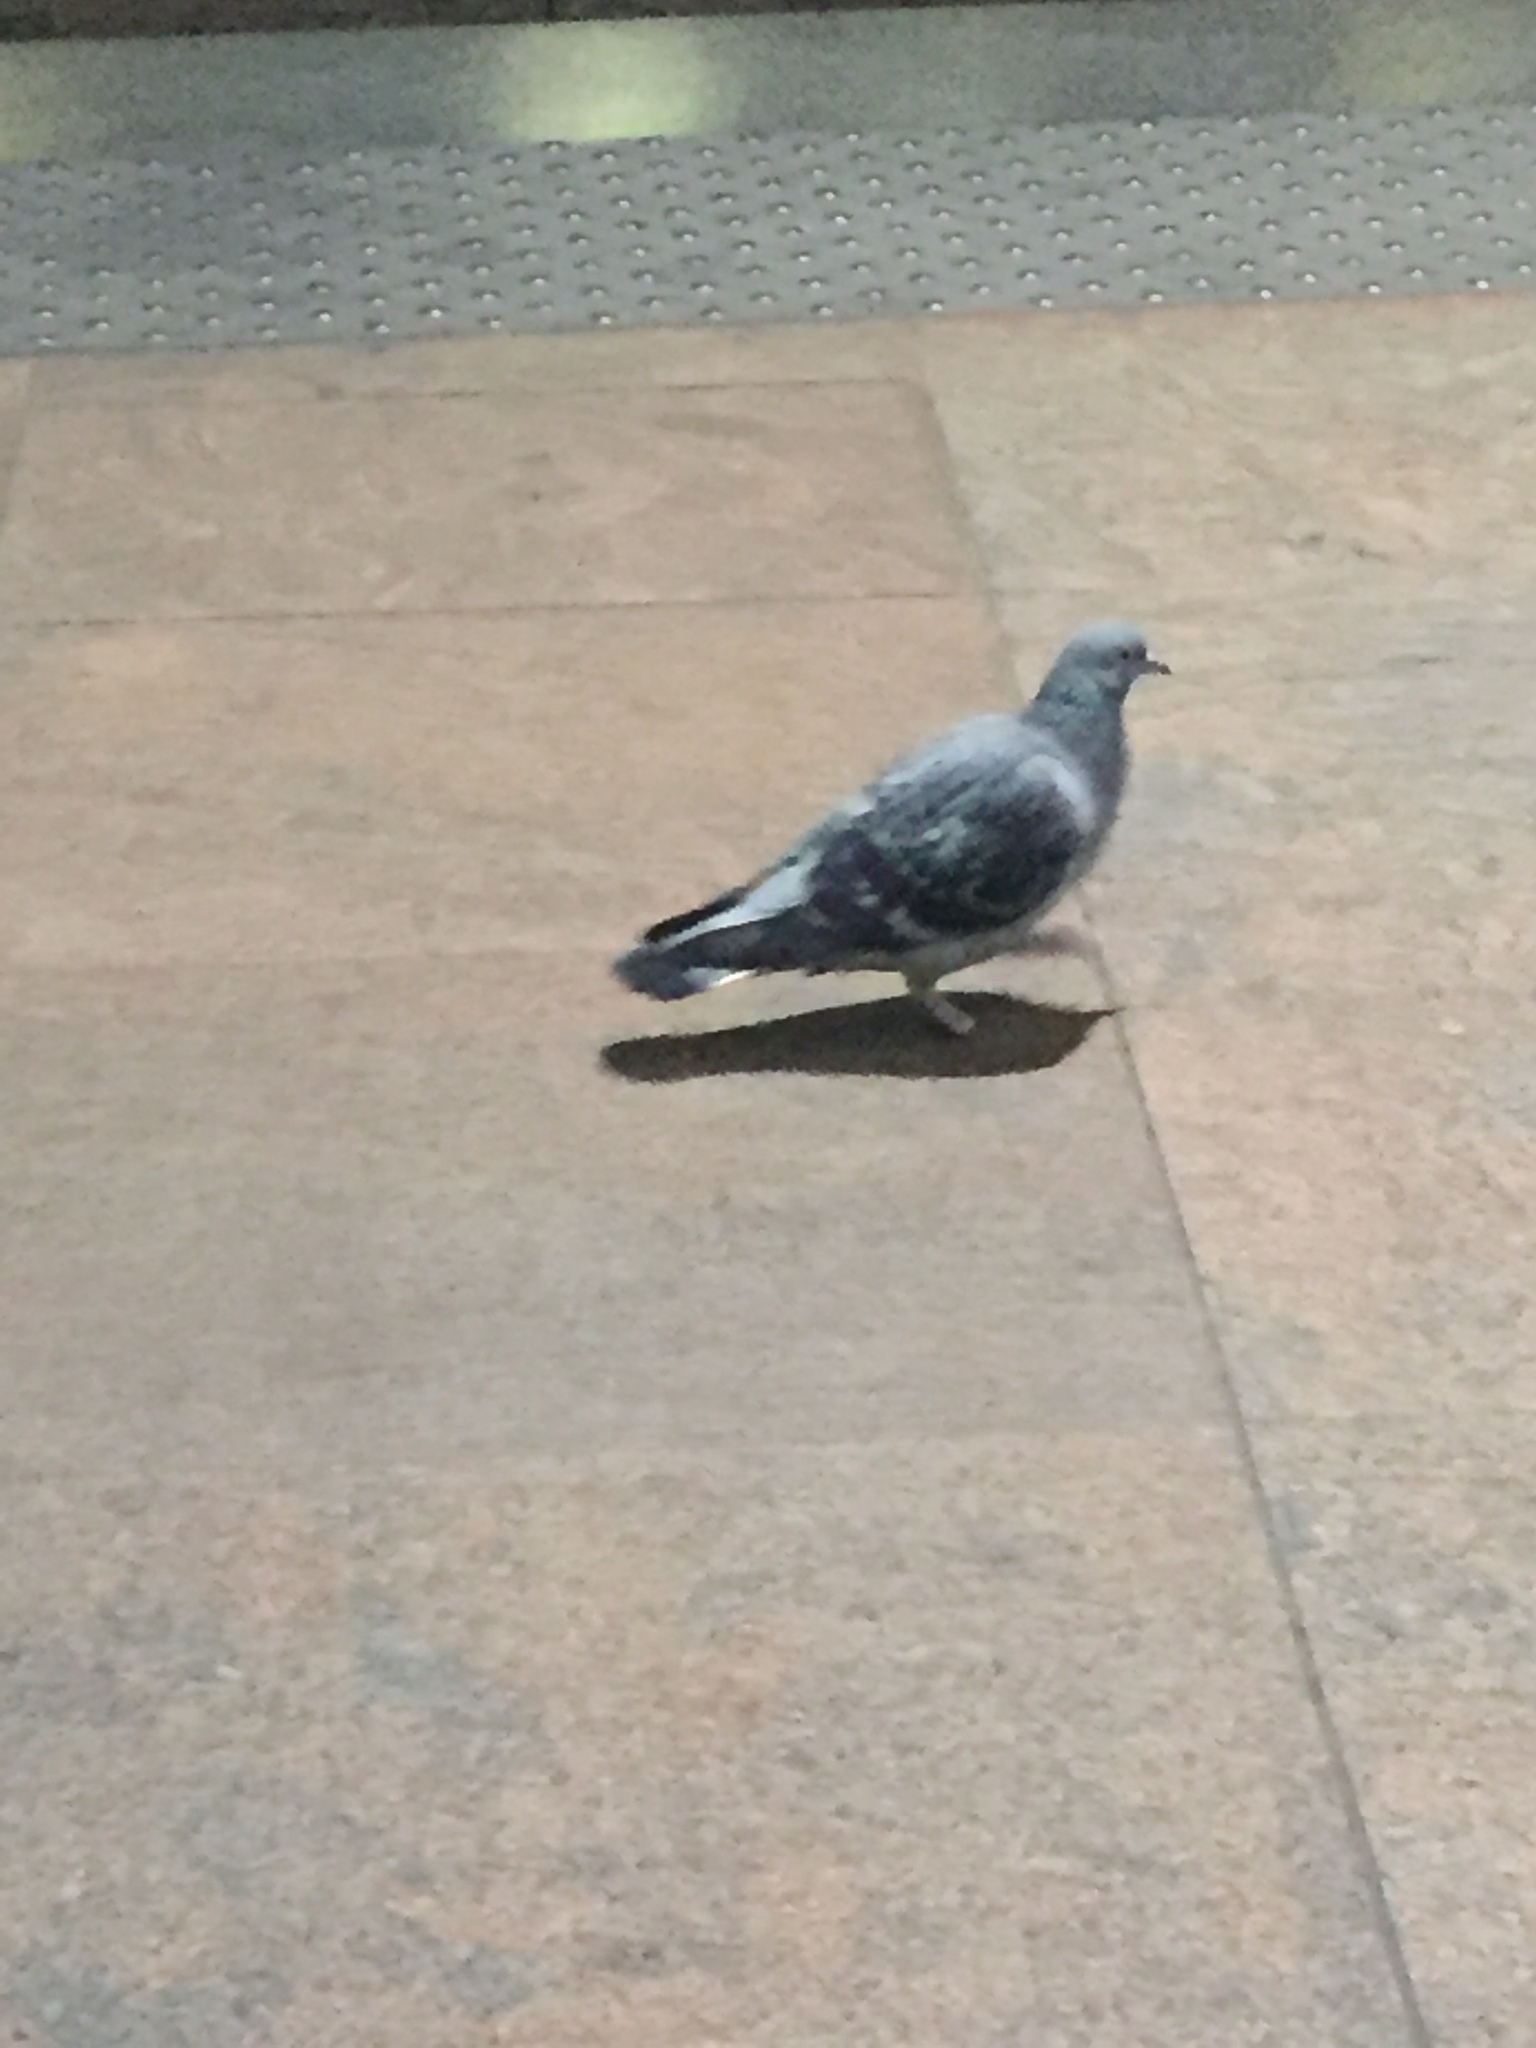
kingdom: Animalia
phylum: Chordata
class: Aves
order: Columbiformes
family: Columbidae
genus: Columba
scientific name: Columba livia
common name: Rock pigeon
